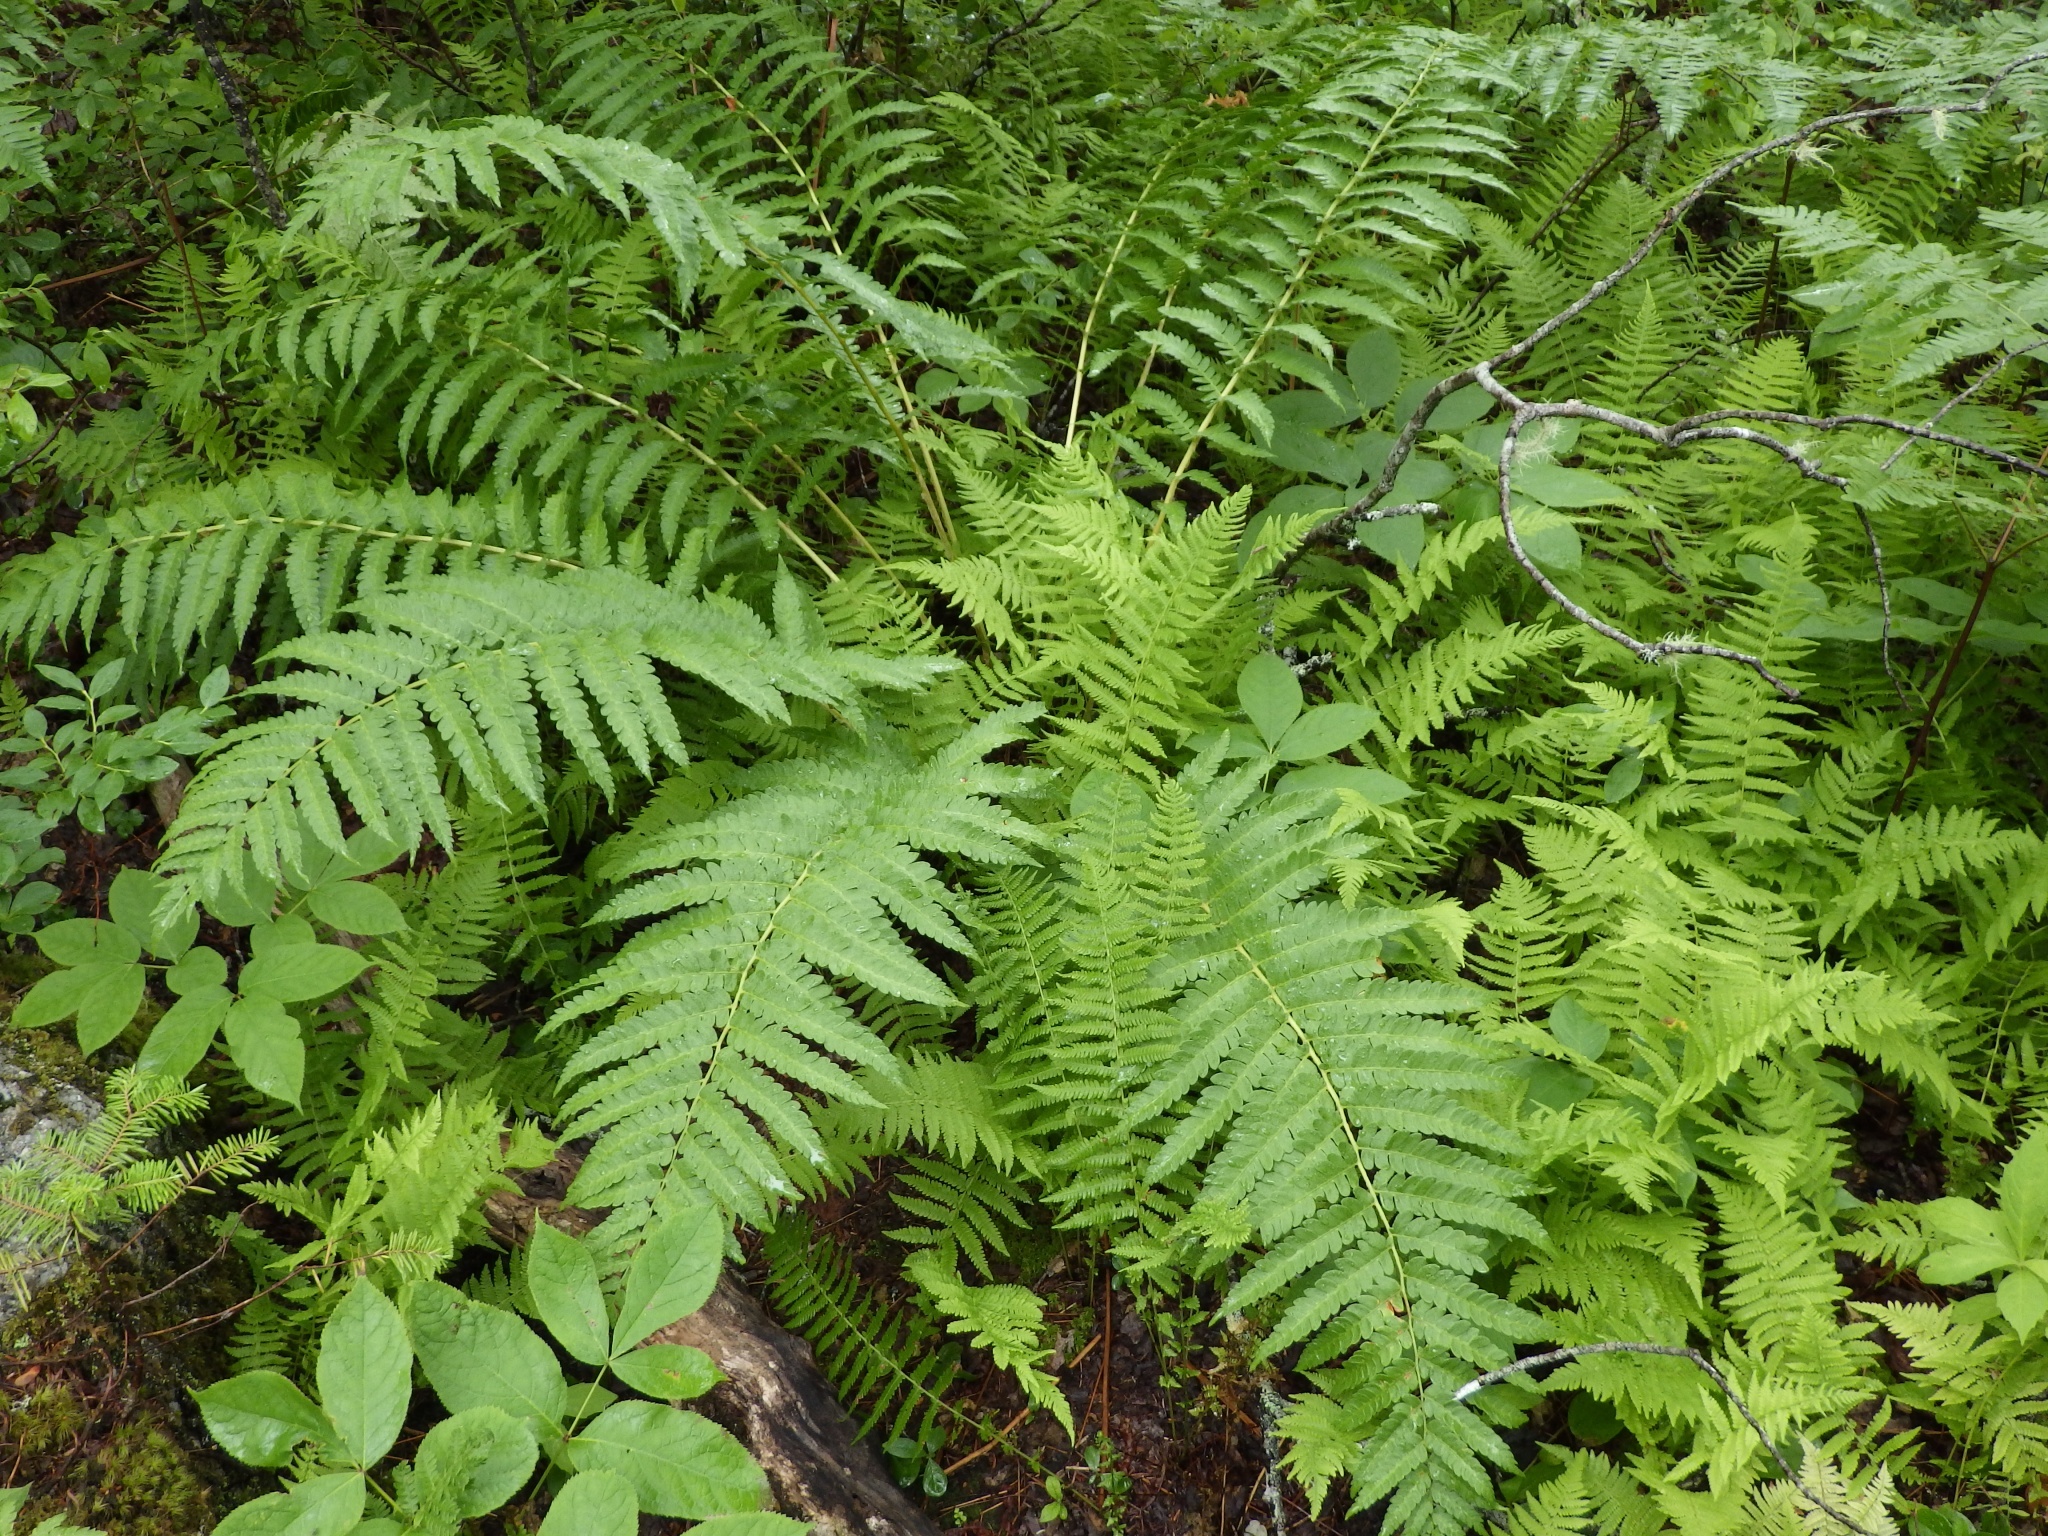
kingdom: Plantae
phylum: Tracheophyta
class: Polypodiopsida
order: Osmundales
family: Osmundaceae
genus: Osmundastrum
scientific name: Osmundastrum cinnamomeum
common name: Cinnamon fern
